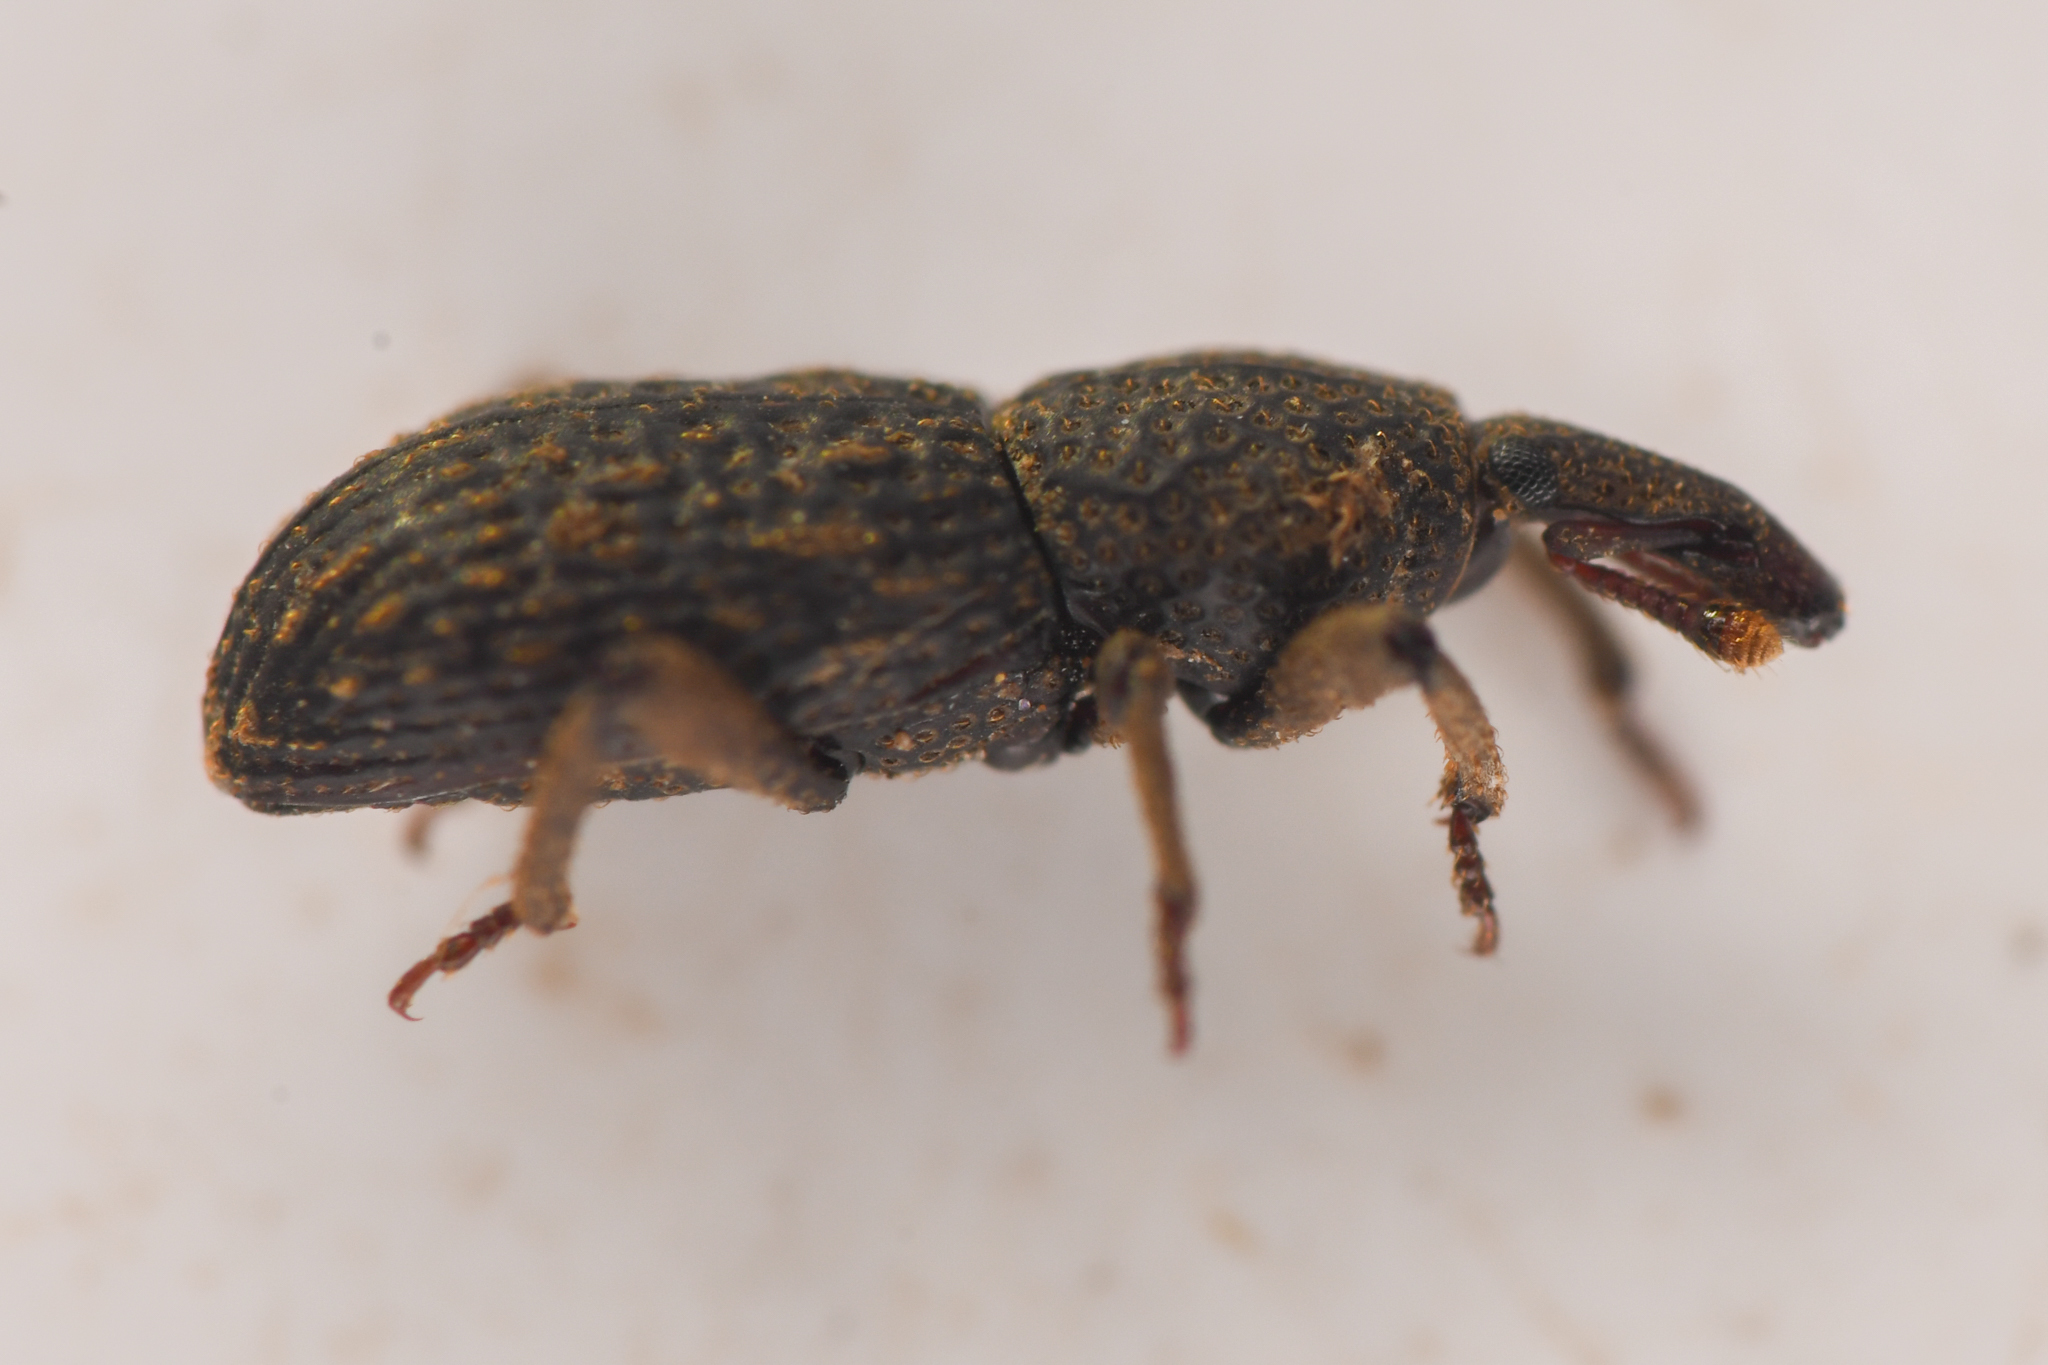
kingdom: Animalia
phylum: Arthropoda
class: Insecta
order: Coleoptera
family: Curculionidae
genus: Lymantes
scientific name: Lymantes
